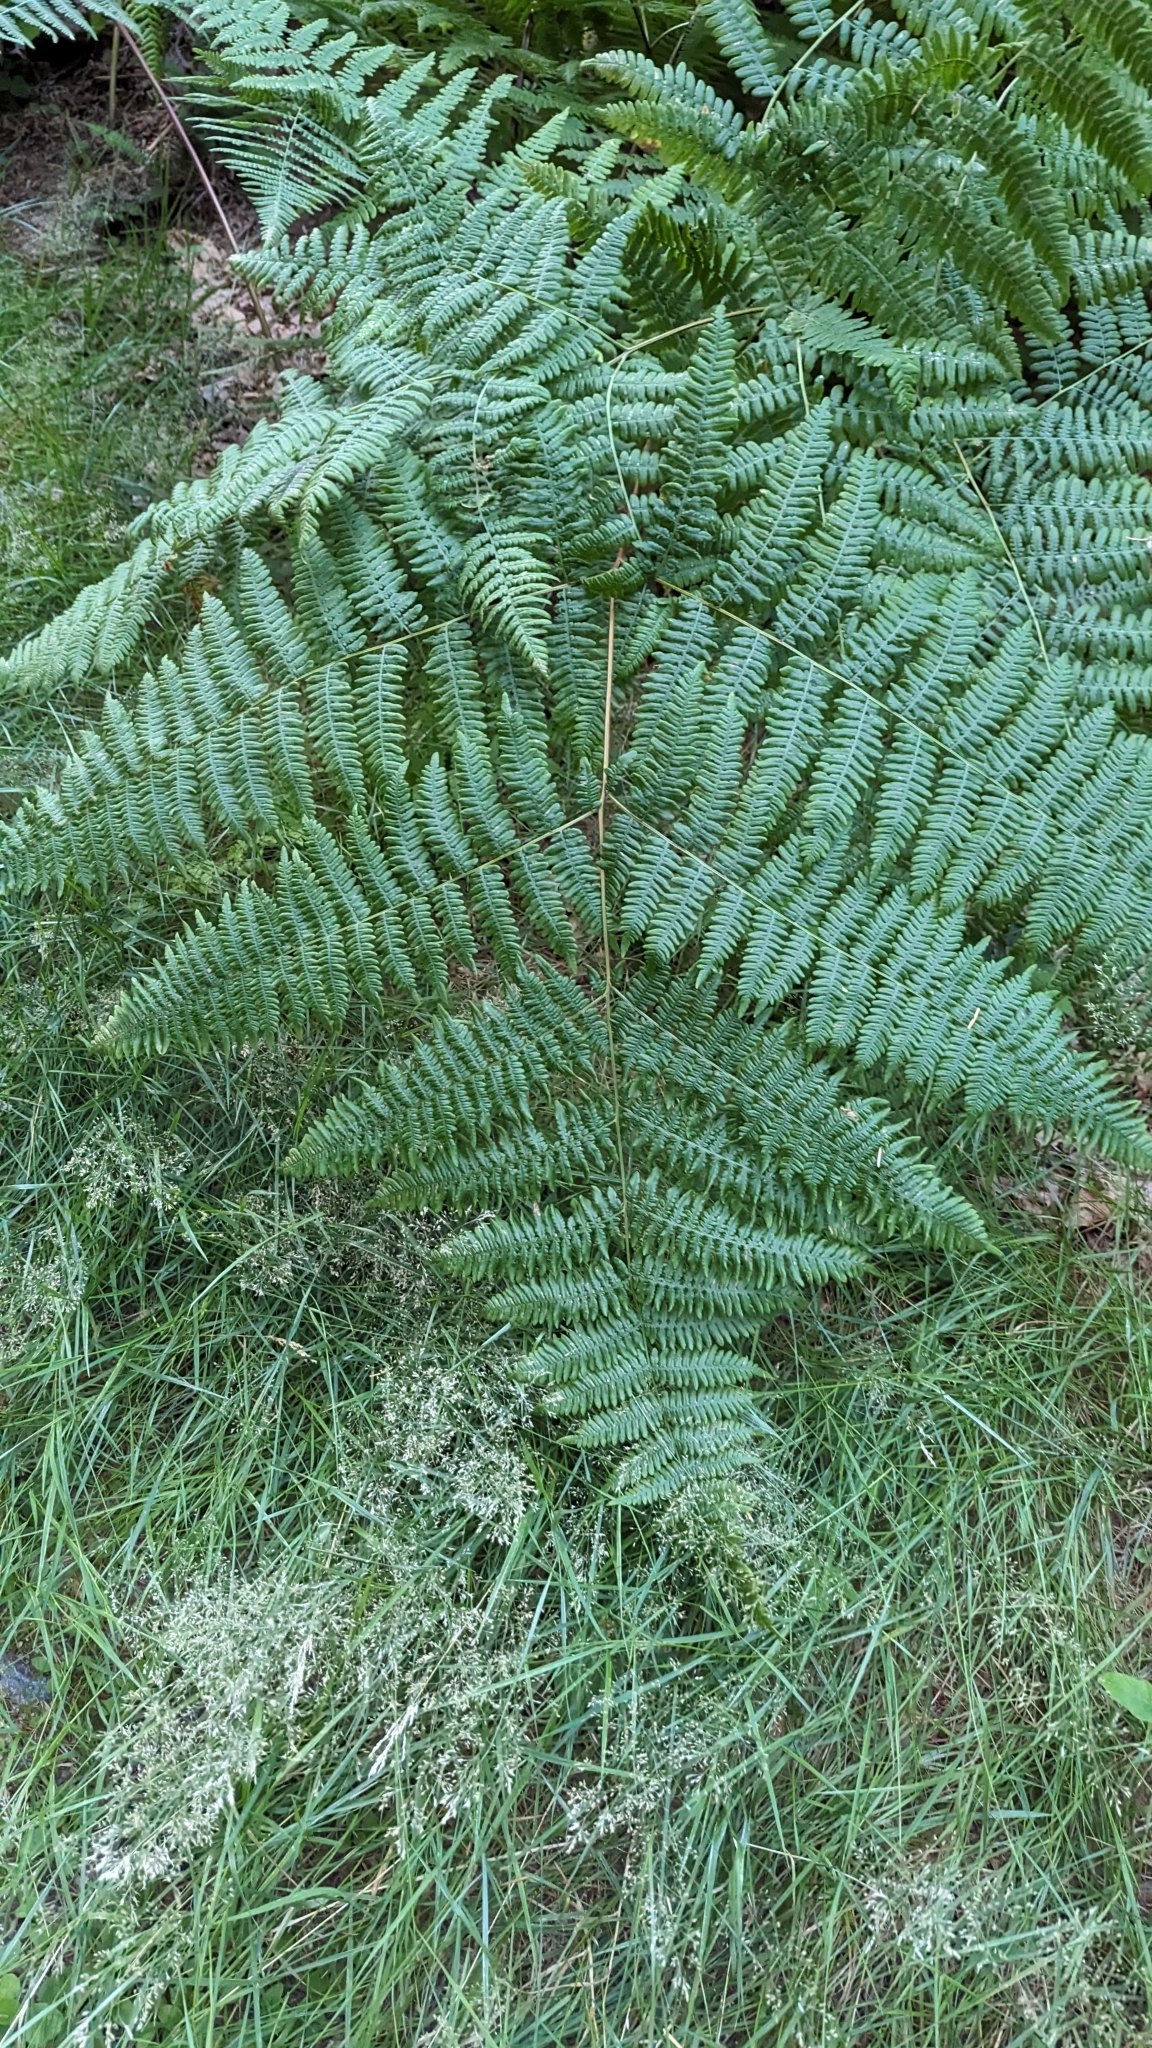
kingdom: Plantae
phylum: Tracheophyta
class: Polypodiopsida
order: Polypodiales
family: Dennstaedtiaceae
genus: Pteridium
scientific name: Pteridium aquilinum
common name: Bracken
